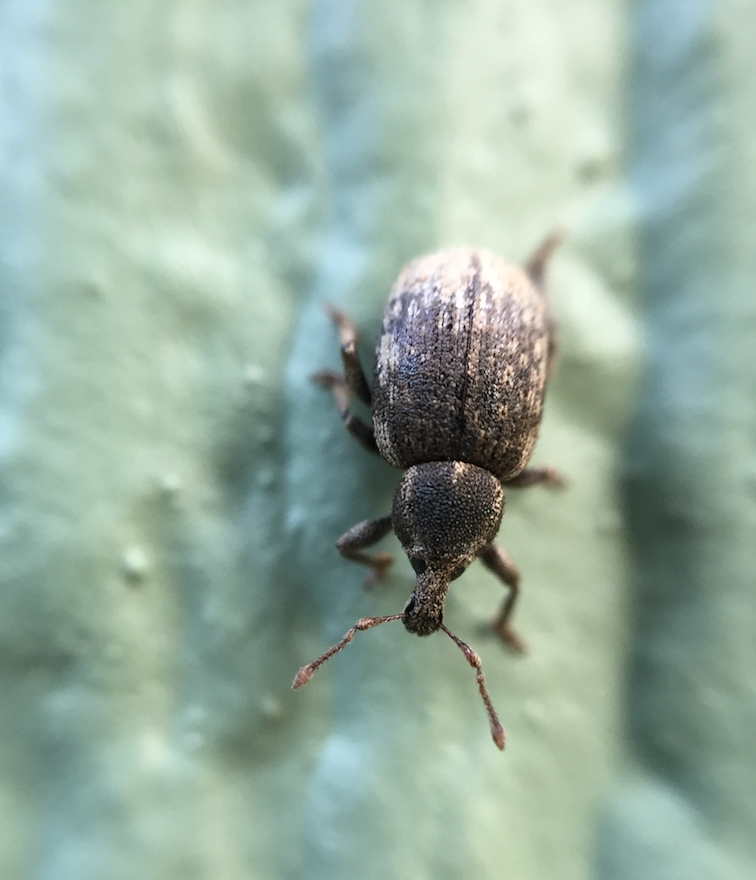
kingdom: Animalia
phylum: Arthropoda
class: Insecta
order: Coleoptera
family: Curculionidae
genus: Lepidophorus
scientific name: Lepidophorus inquinatus
